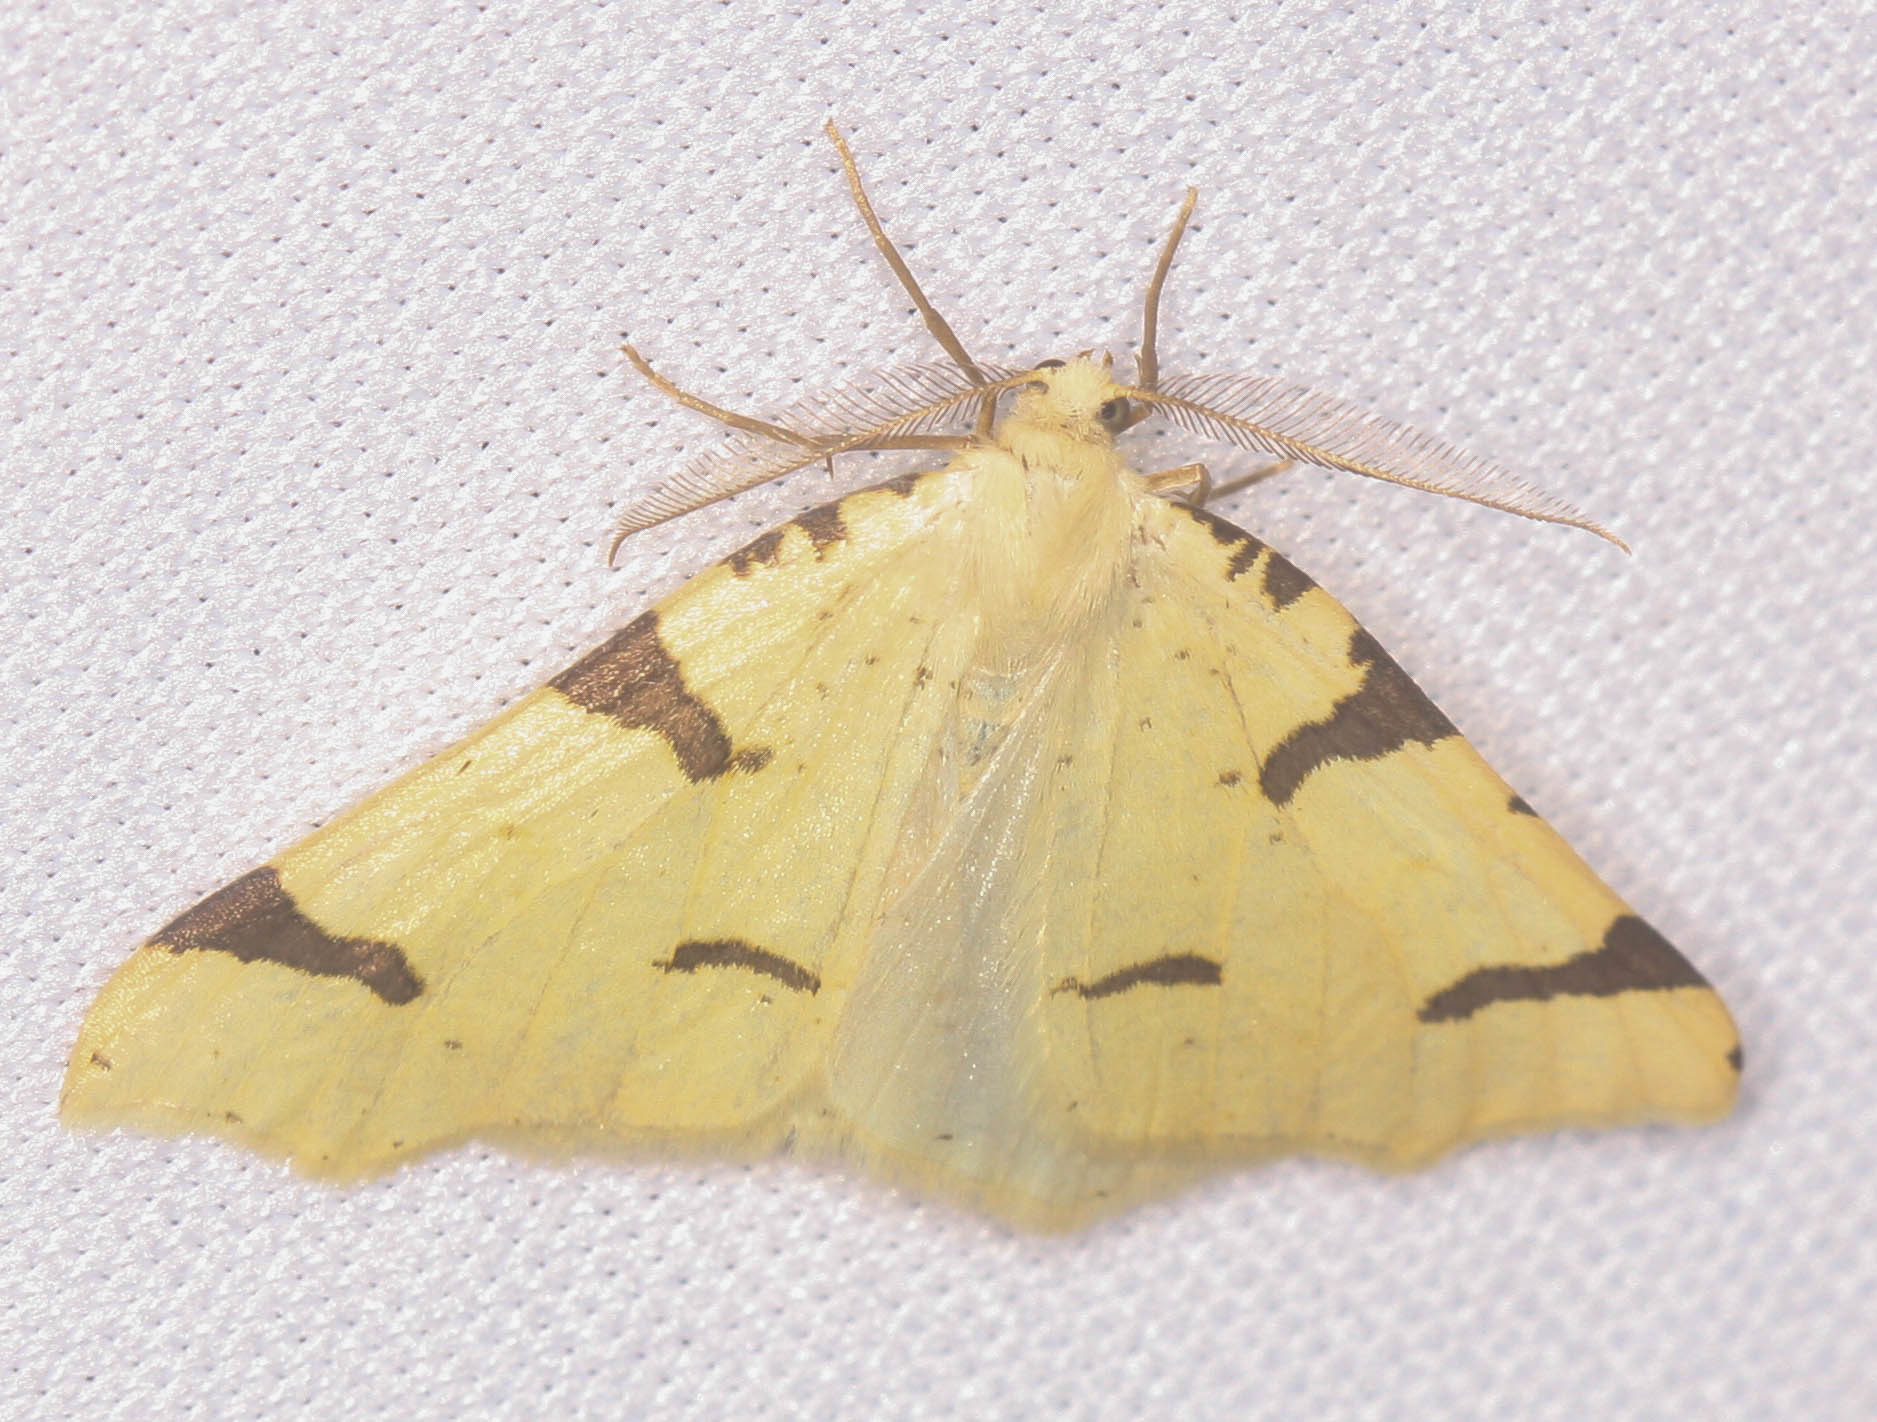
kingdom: Animalia
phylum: Arthropoda
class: Insecta
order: Lepidoptera
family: Geometridae
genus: Neoterpes
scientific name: Neoterpes trianguliferata
